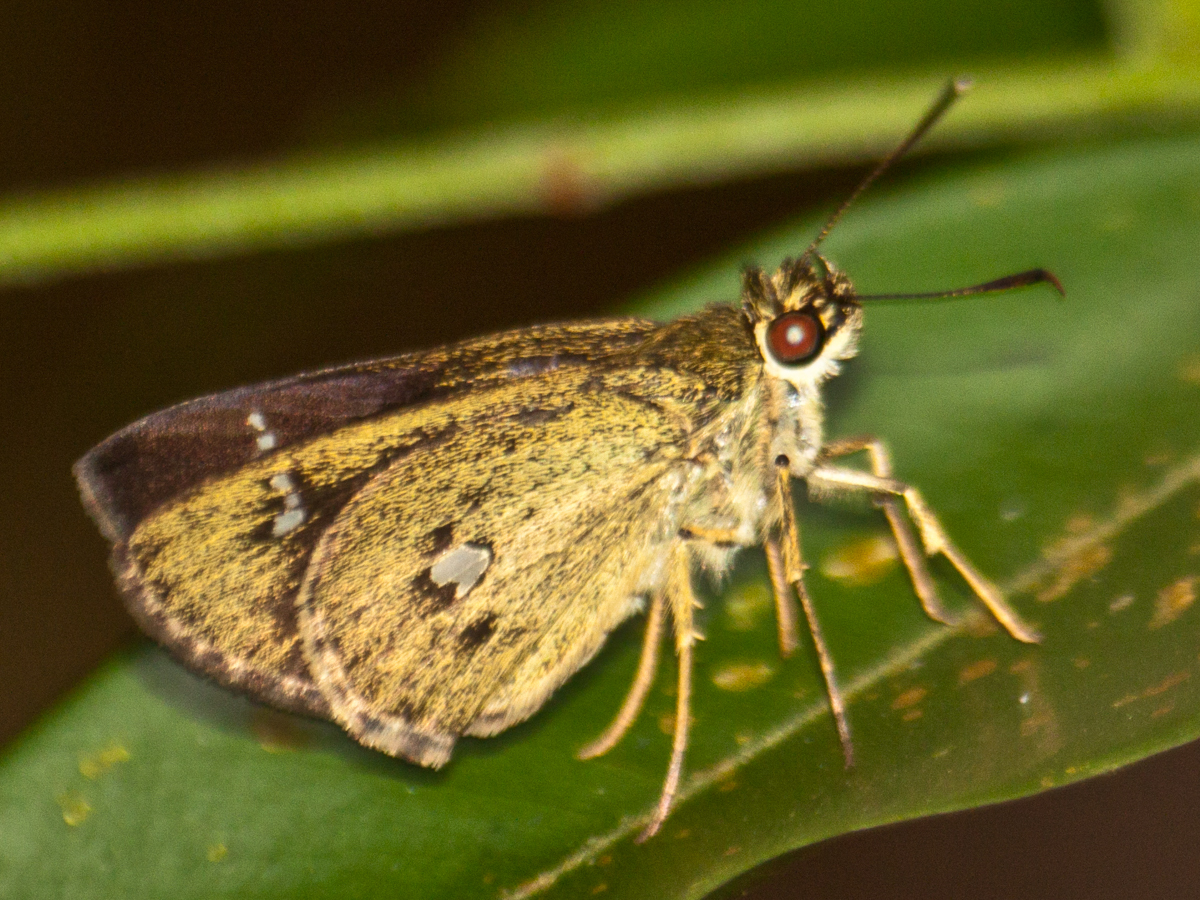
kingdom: Animalia
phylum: Arthropoda
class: Insecta
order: Lepidoptera
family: Hesperiidae
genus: Scobura
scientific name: Scobura phiditia
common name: Malay forest bob
